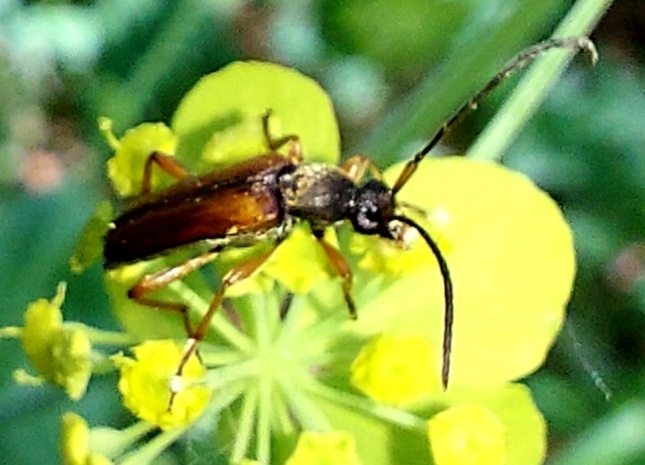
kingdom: Animalia
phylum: Arthropoda
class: Insecta
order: Coleoptera
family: Cerambycidae
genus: Alosterna
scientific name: Alosterna tabacicolor
